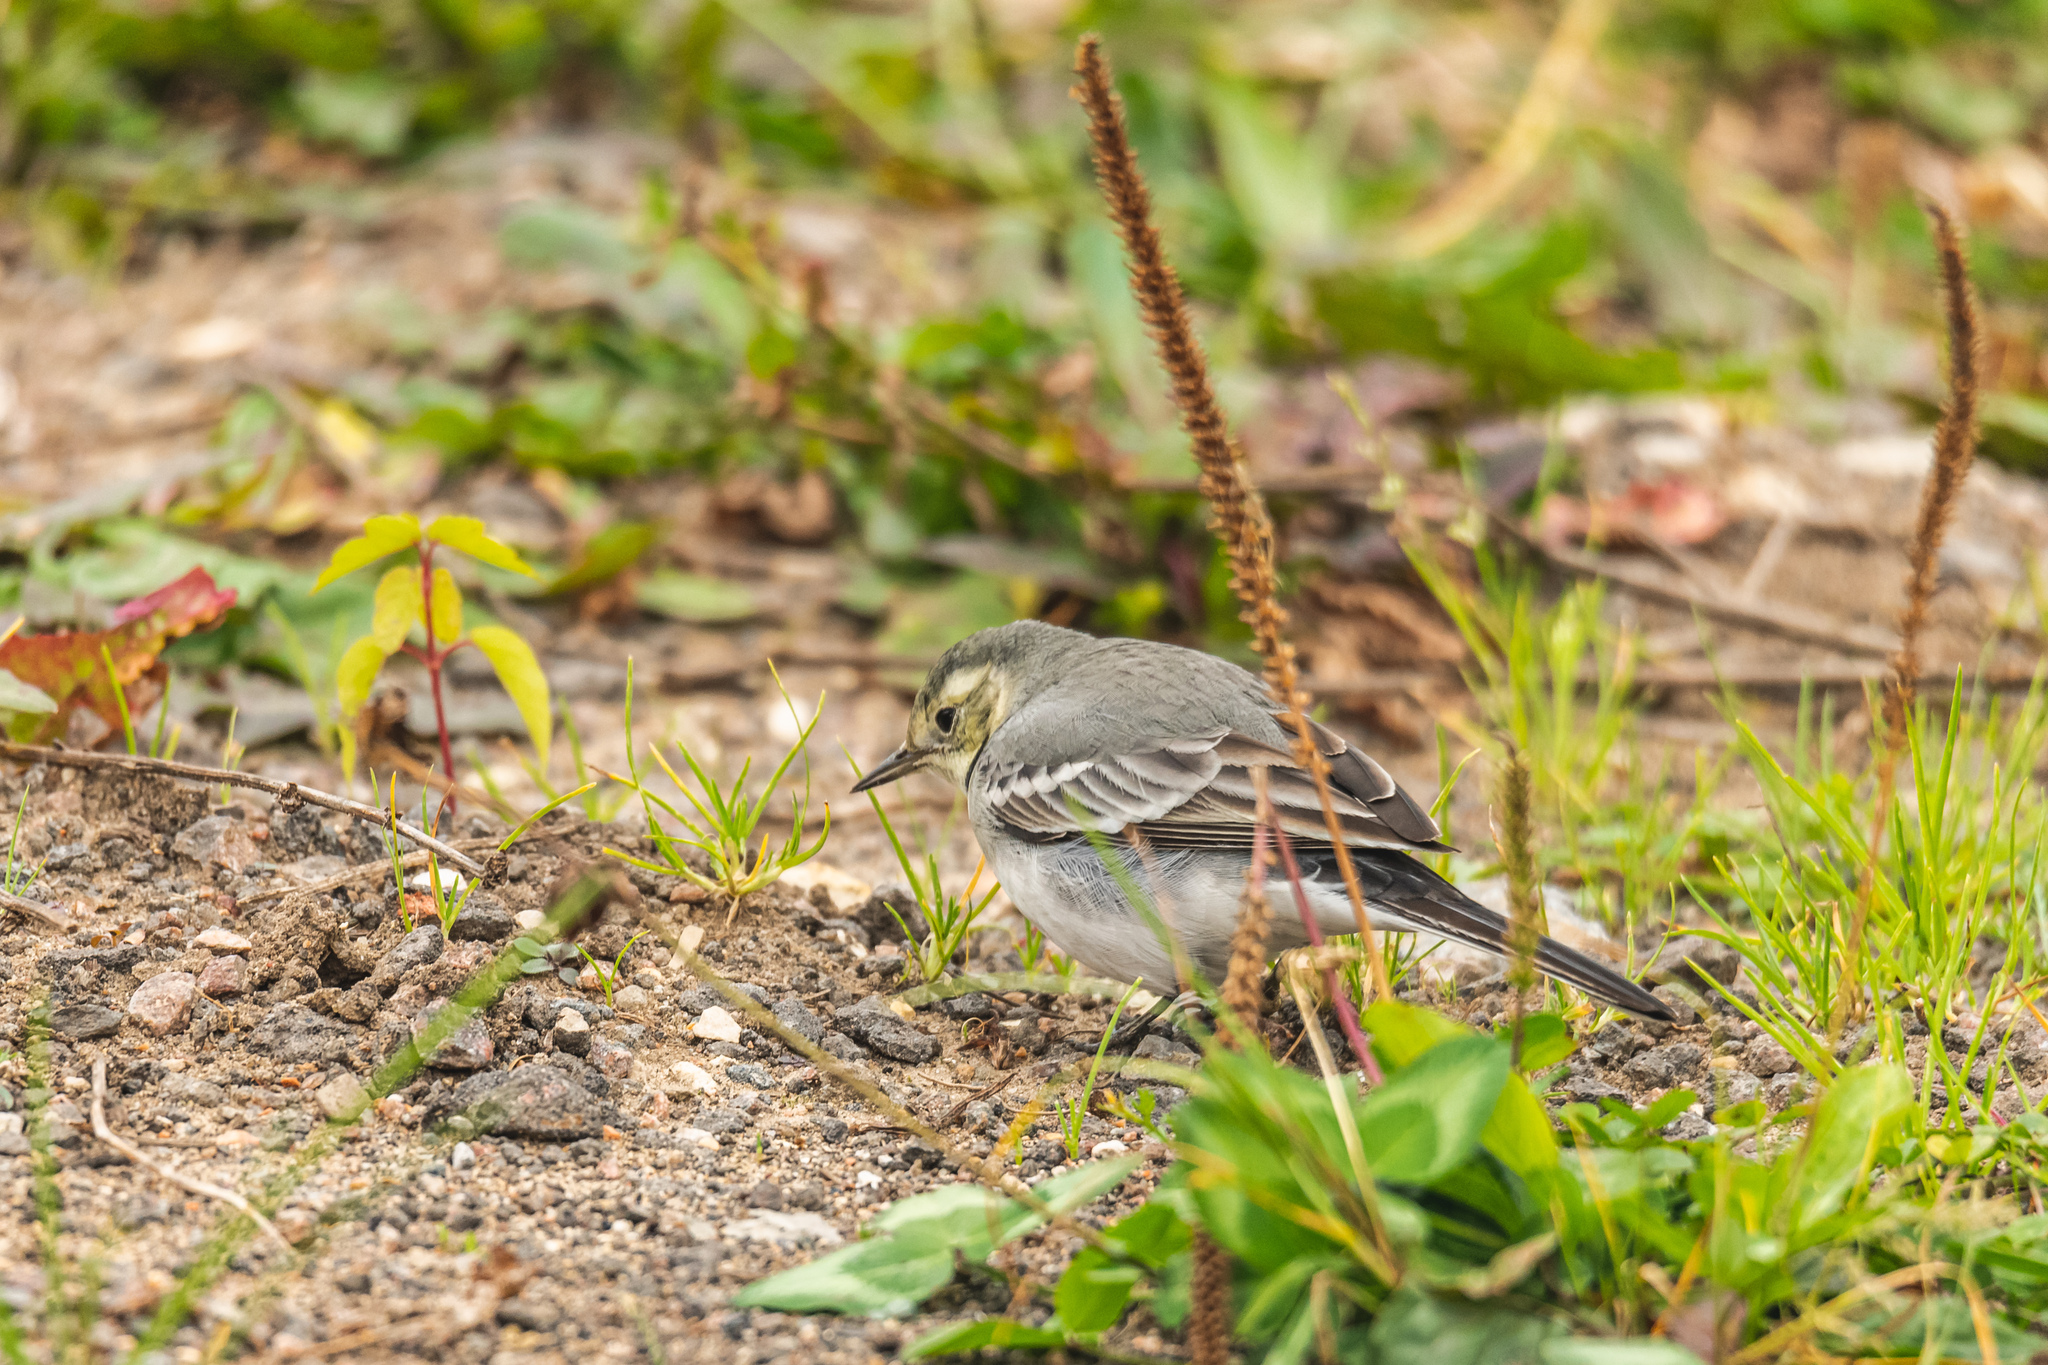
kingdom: Animalia
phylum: Chordata
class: Aves
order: Passeriformes
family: Motacillidae
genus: Motacilla
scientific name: Motacilla alba
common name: White wagtail
